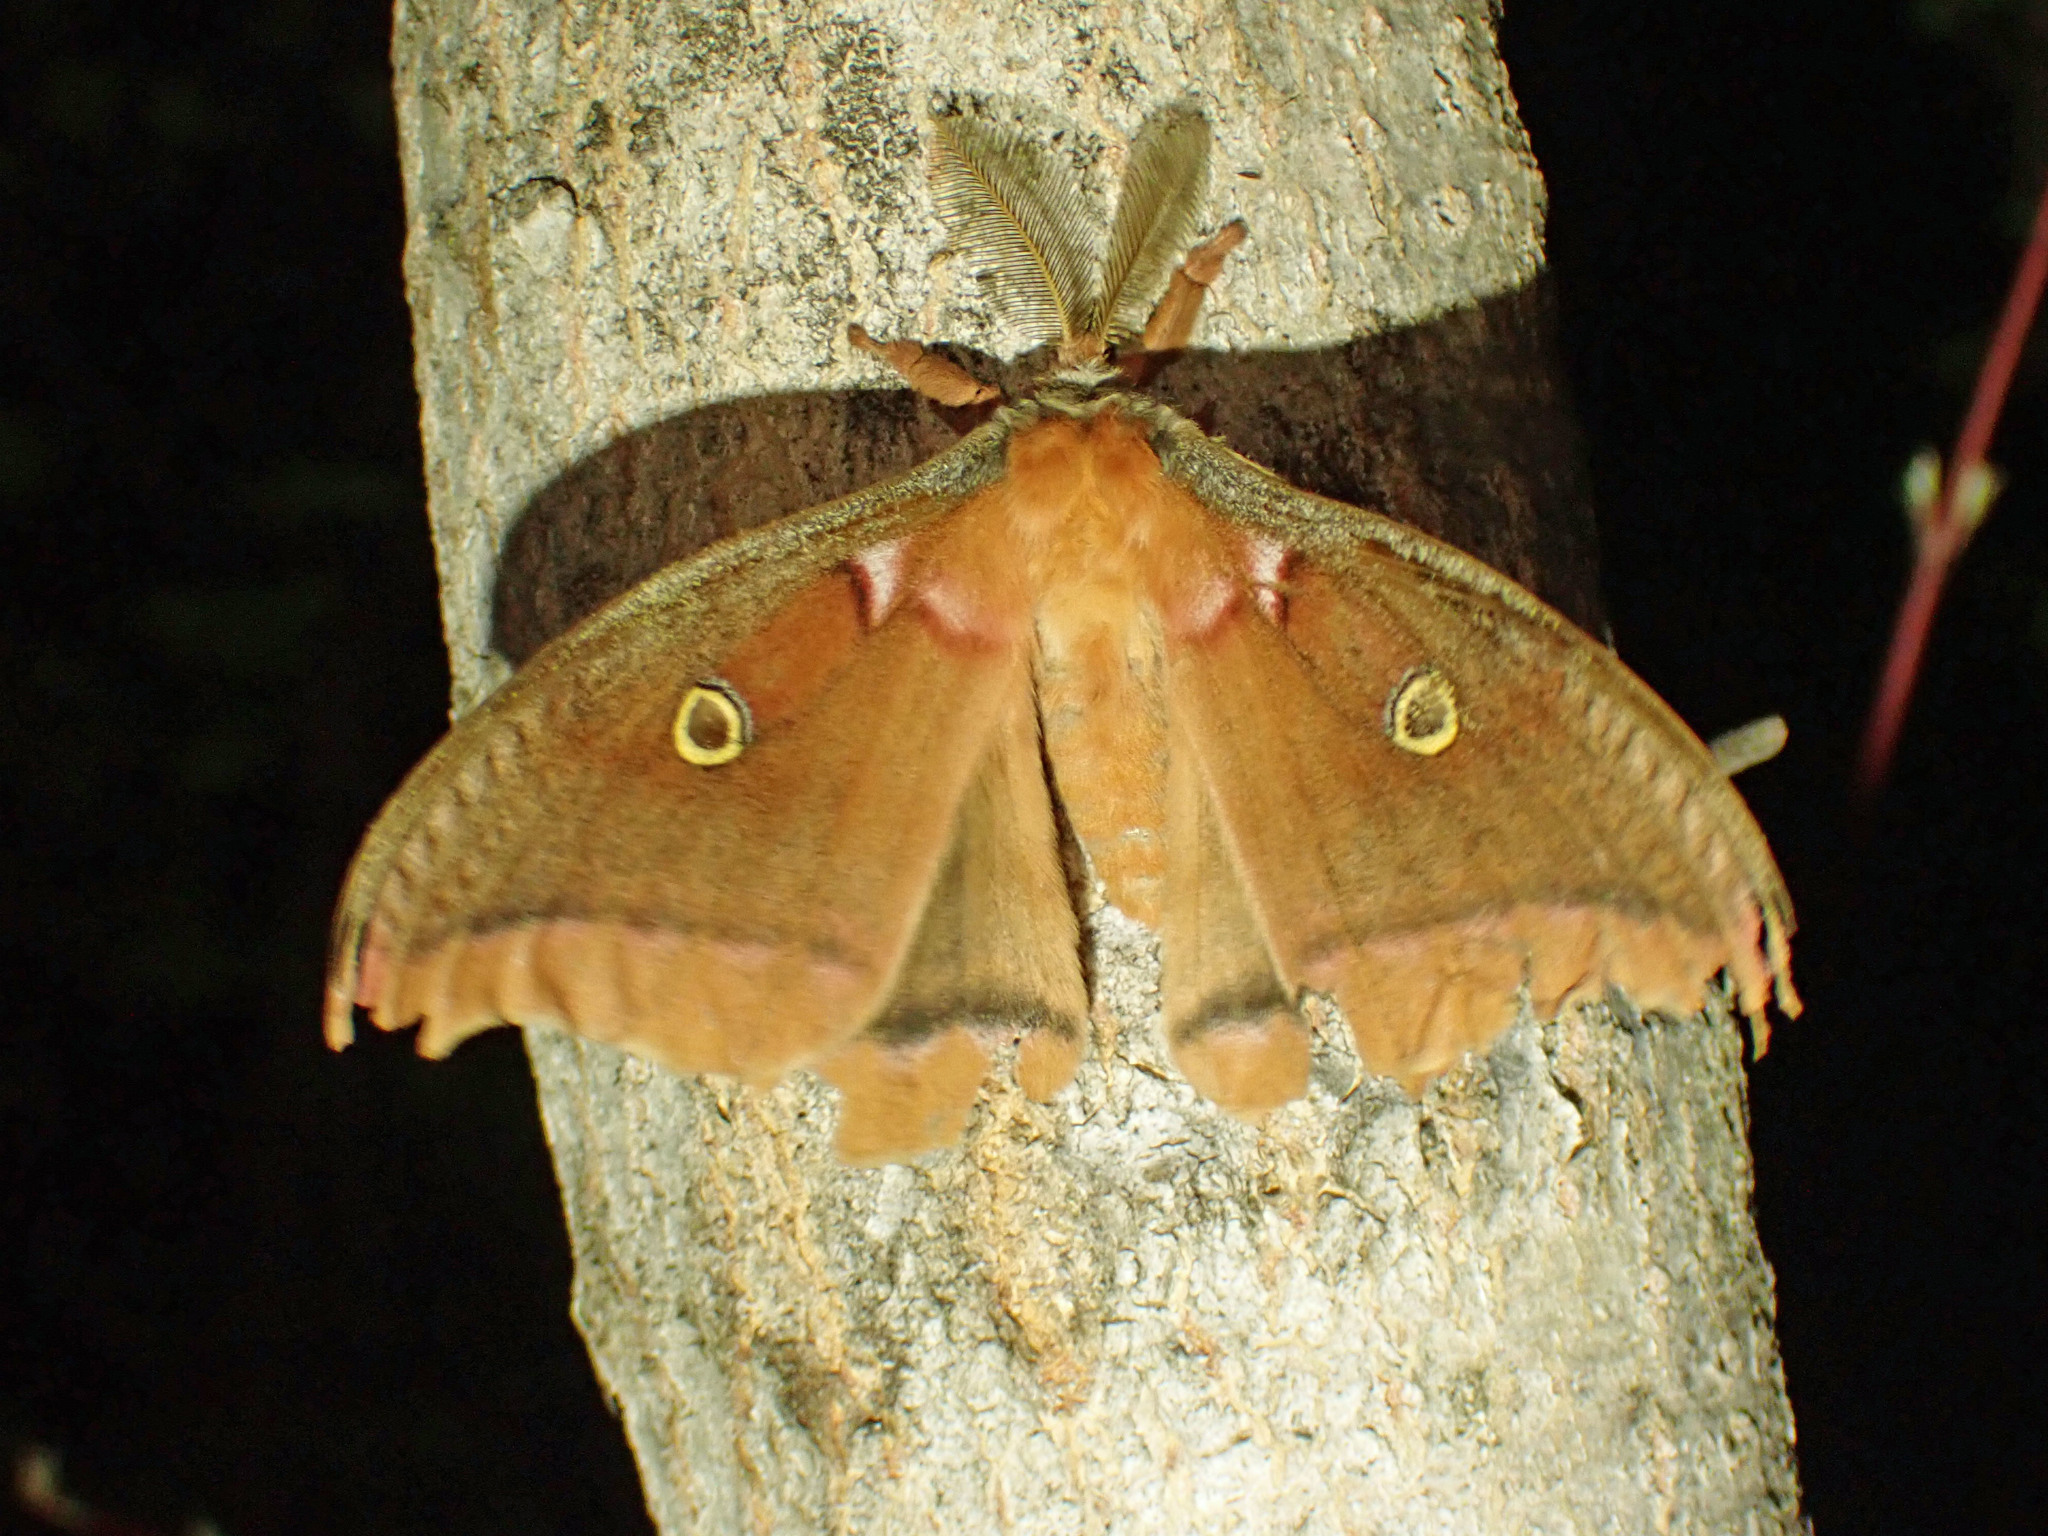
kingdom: Animalia
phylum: Arthropoda
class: Insecta
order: Lepidoptera
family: Saturniidae
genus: Antheraea
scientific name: Antheraea polyphemus
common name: Polyphemus moth
